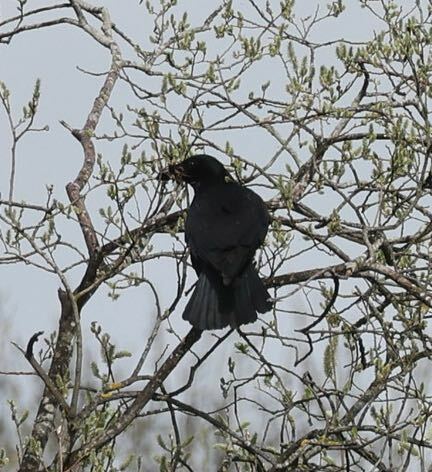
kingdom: Animalia
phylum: Chordata
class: Aves
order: Passeriformes
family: Corvidae
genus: Corvus
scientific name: Corvus corone
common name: Carrion crow
